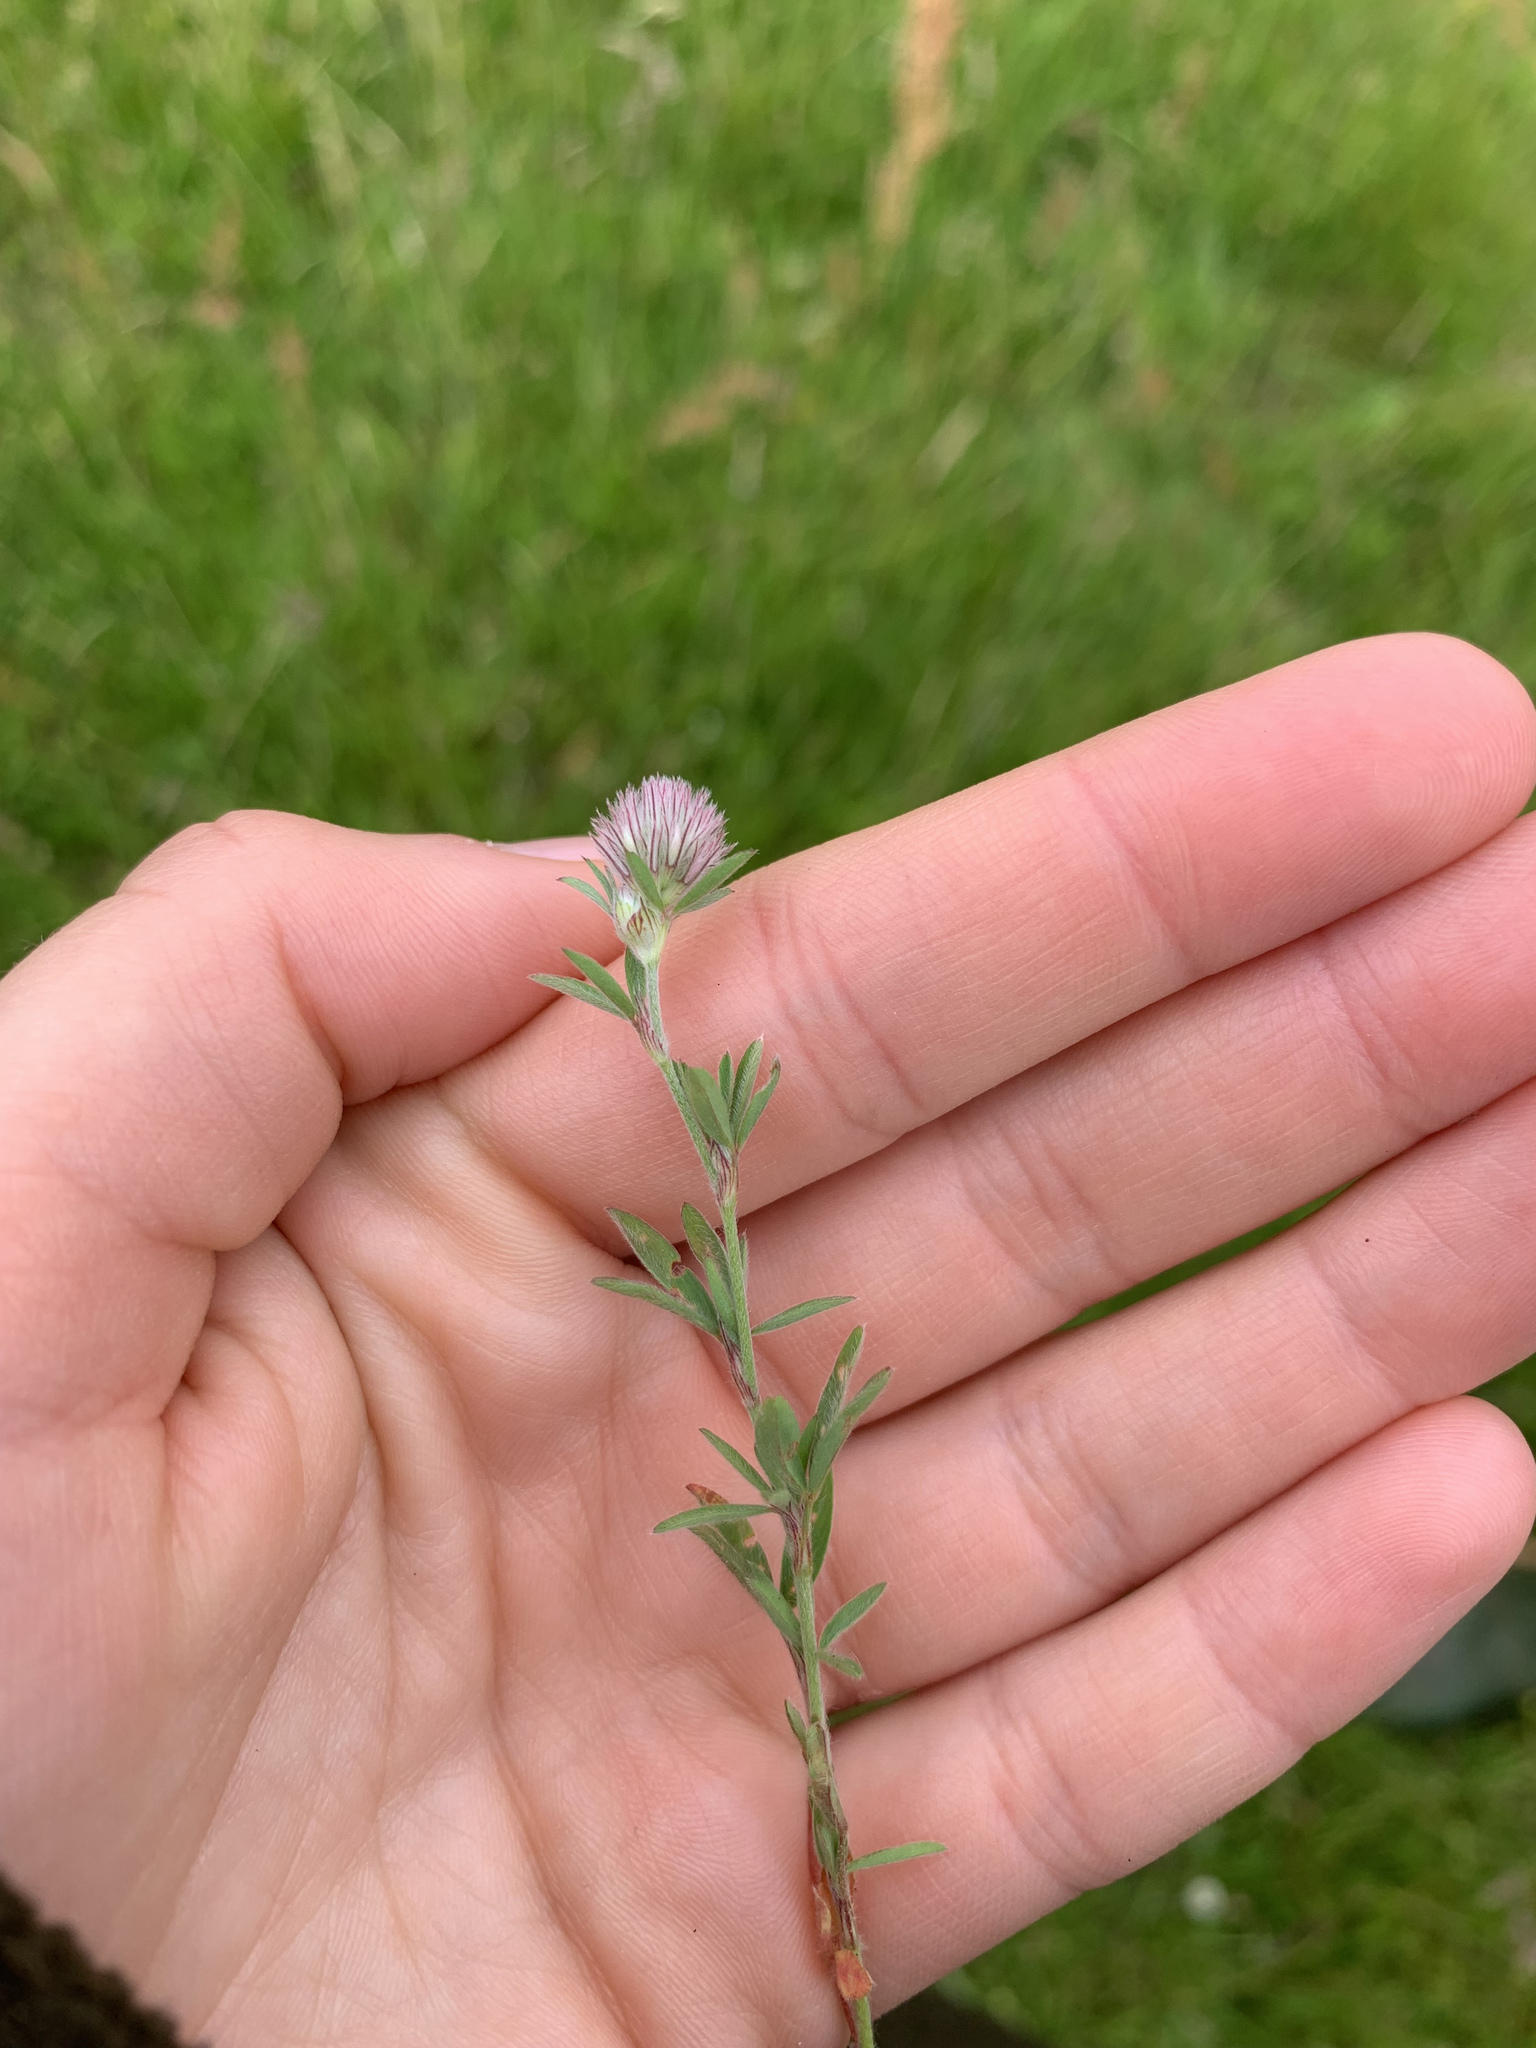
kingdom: Plantae
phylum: Tracheophyta
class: Magnoliopsida
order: Fabales
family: Fabaceae
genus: Trifolium
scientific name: Trifolium arvense
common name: Hare's-foot clover
